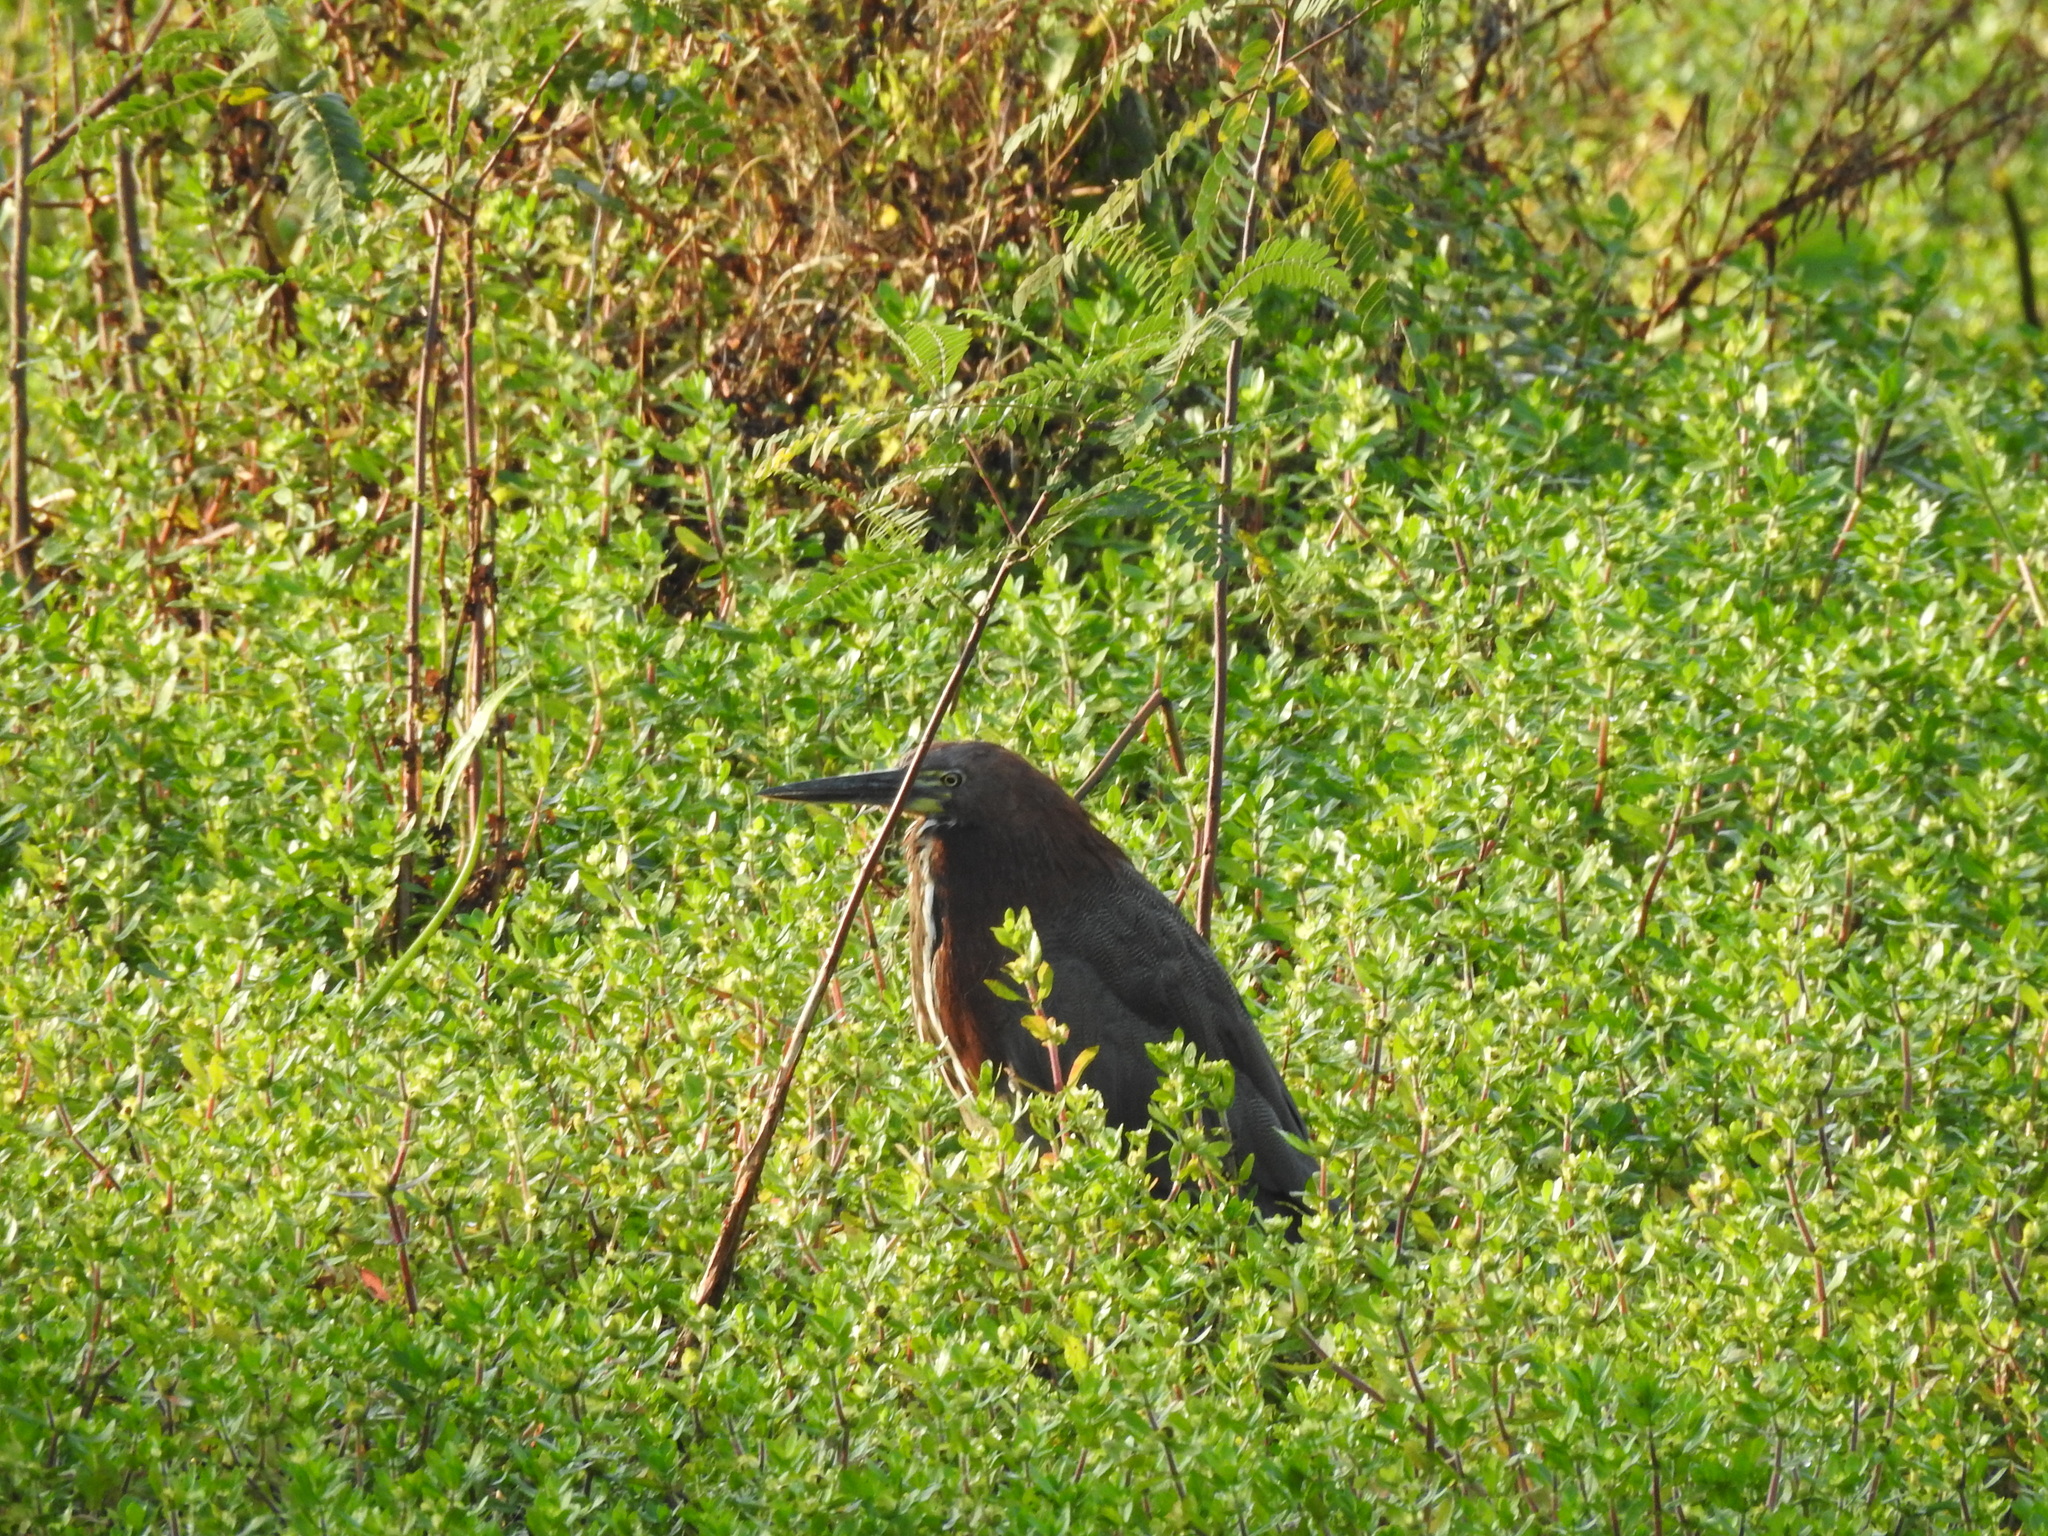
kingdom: Animalia
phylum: Chordata
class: Aves
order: Pelecaniformes
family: Ardeidae
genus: Tigrisoma
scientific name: Tigrisoma lineatum
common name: Rufescent tiger-heron
